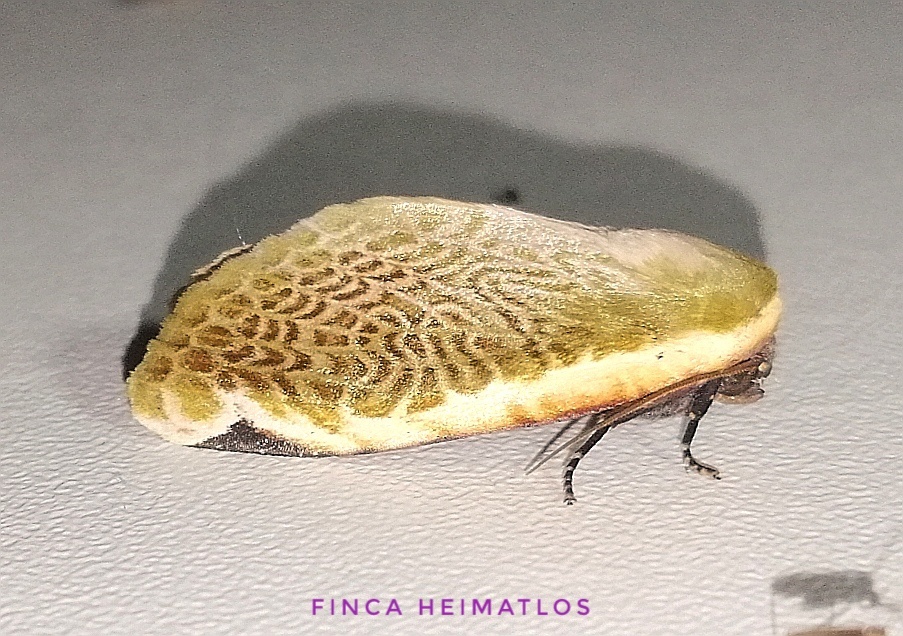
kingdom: Animalia
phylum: Arthropoda
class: Insecta
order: Lepidoptera
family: Noctuidae
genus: Oxythres
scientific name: Oxythres splendens
